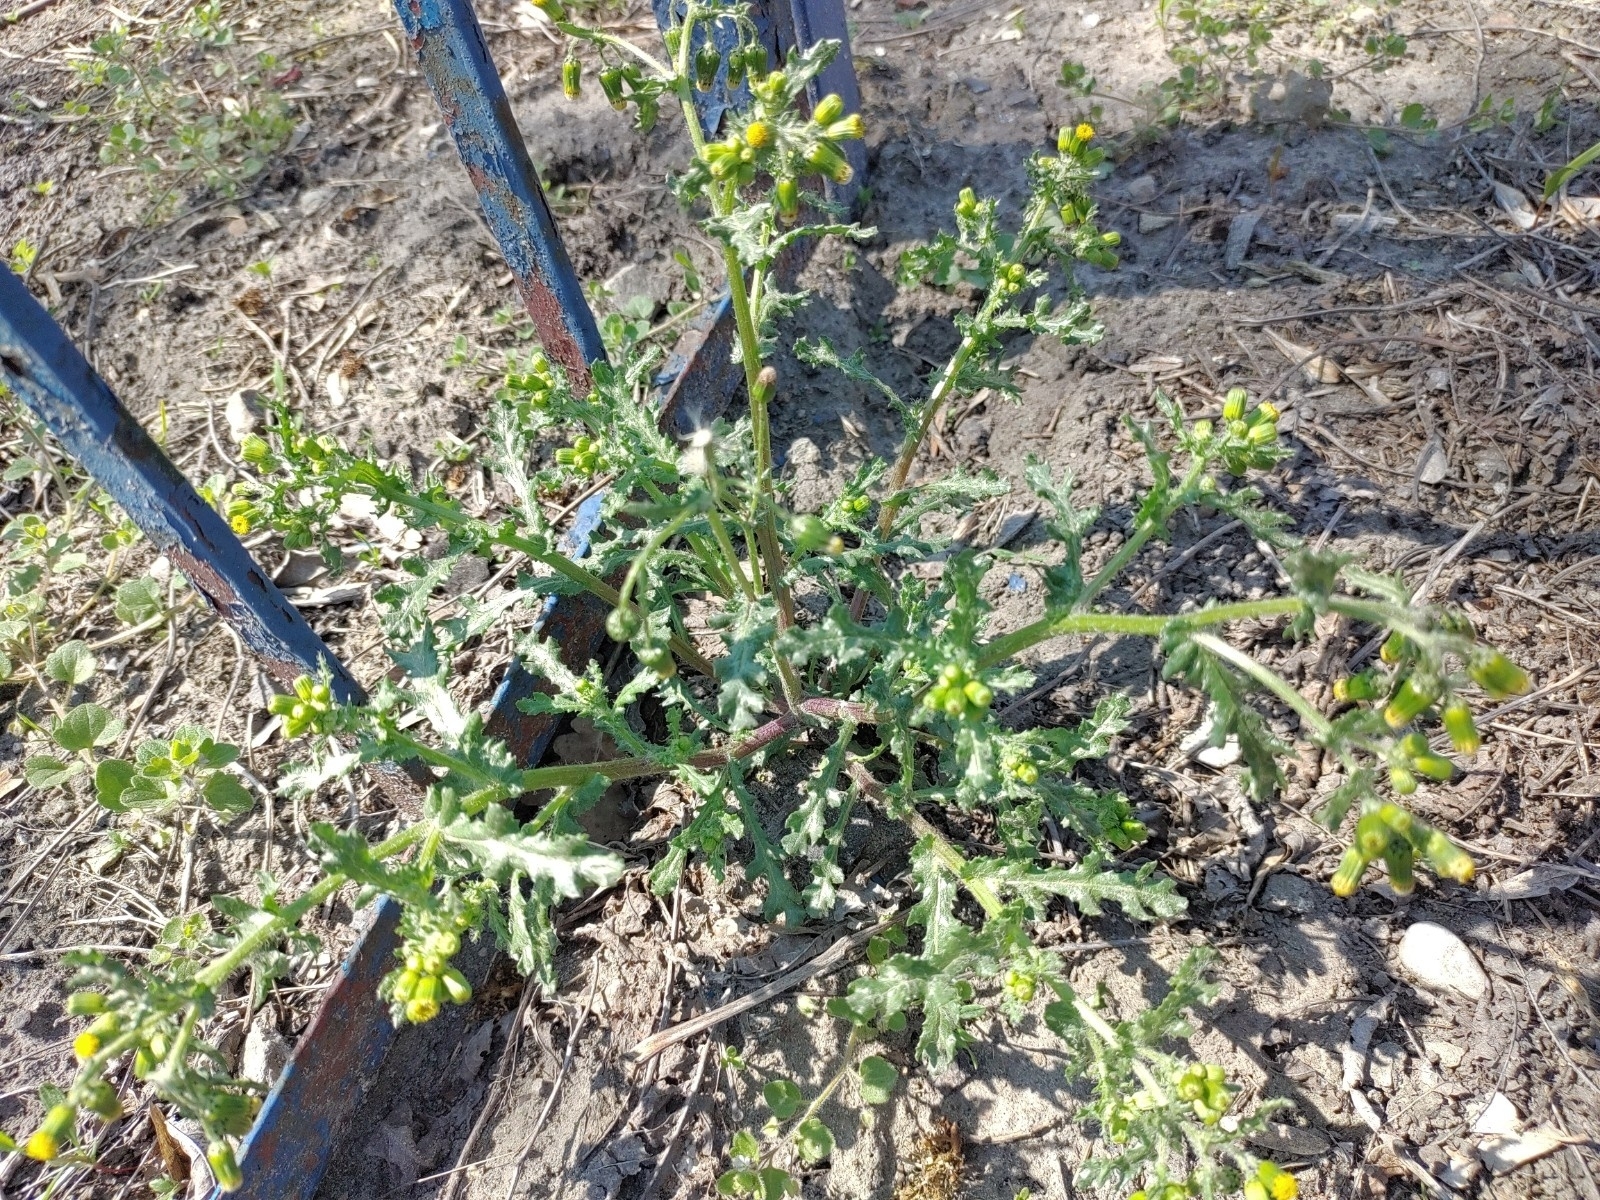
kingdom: Plantae
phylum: Tracheophyta
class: Magnoliopsida
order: Asterales
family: Asteraceae
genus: Senecio
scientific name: Senecio vulgaris
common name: Old-man-in-the-spring
